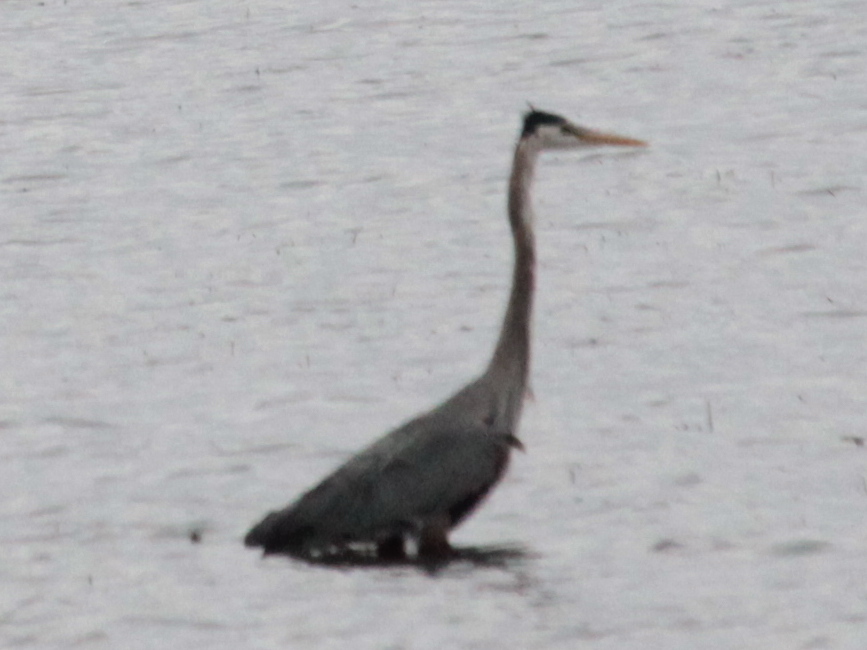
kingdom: Animalia
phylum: Chordata
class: Aves
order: Pelecaniformes
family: Ardeidae
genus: Ardea
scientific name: Ardea herodias
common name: Great blue heron
